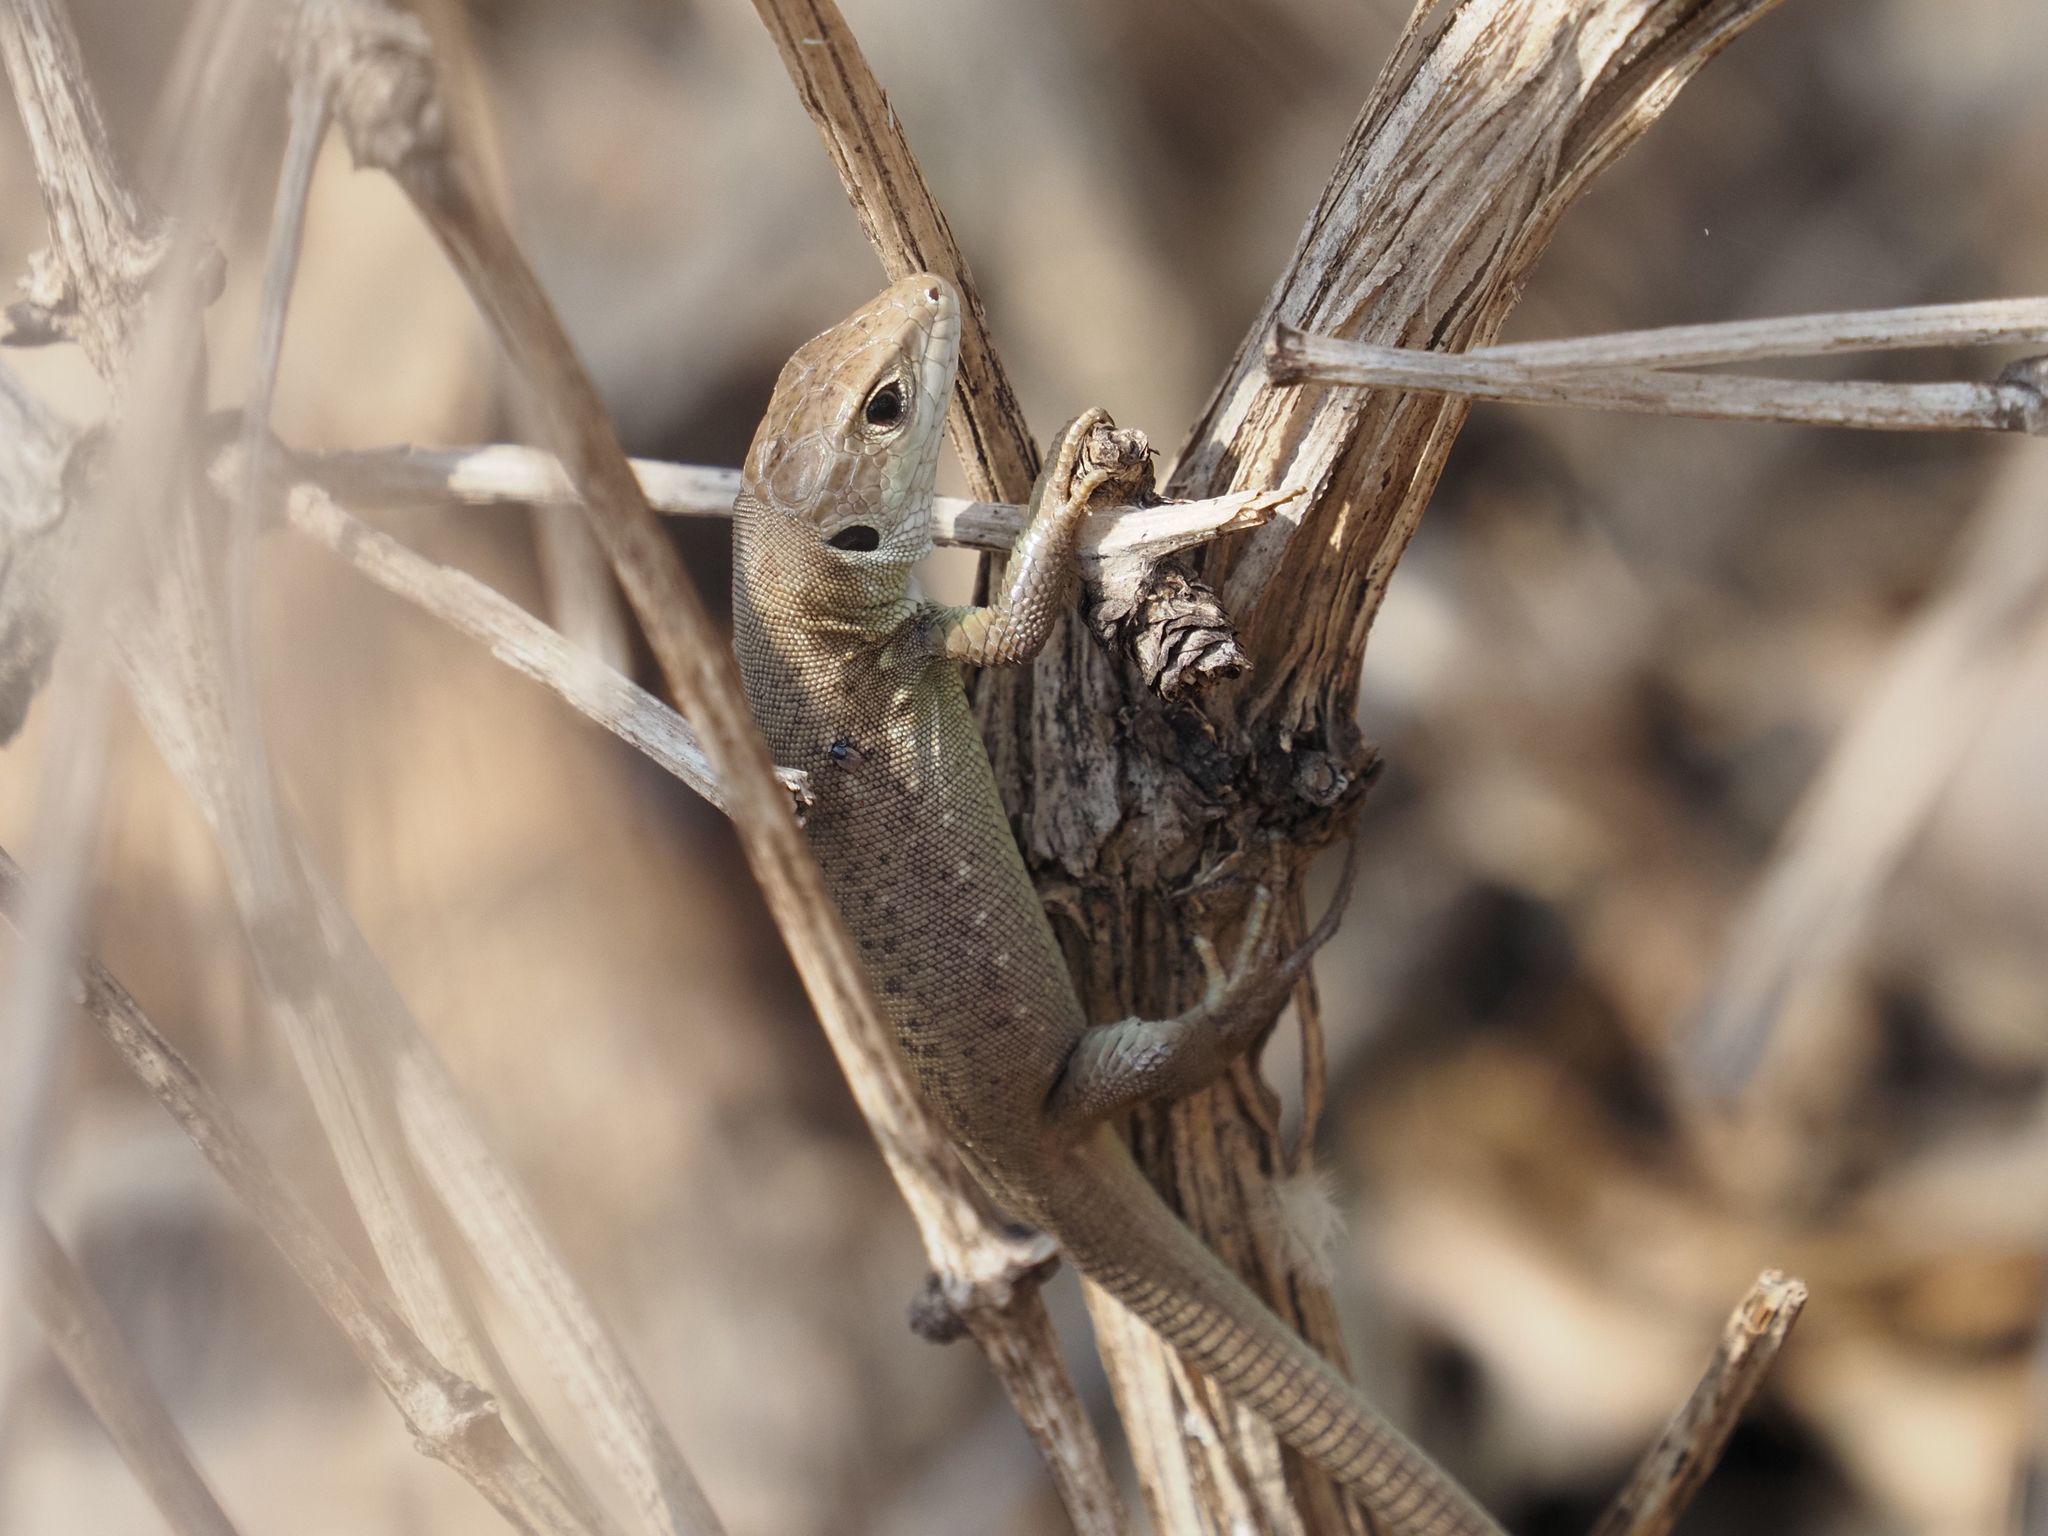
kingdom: Animalia
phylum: Chordata
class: Squamata
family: Lacertidae
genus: Lacerta
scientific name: Lacerta viridis
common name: European green lizard
